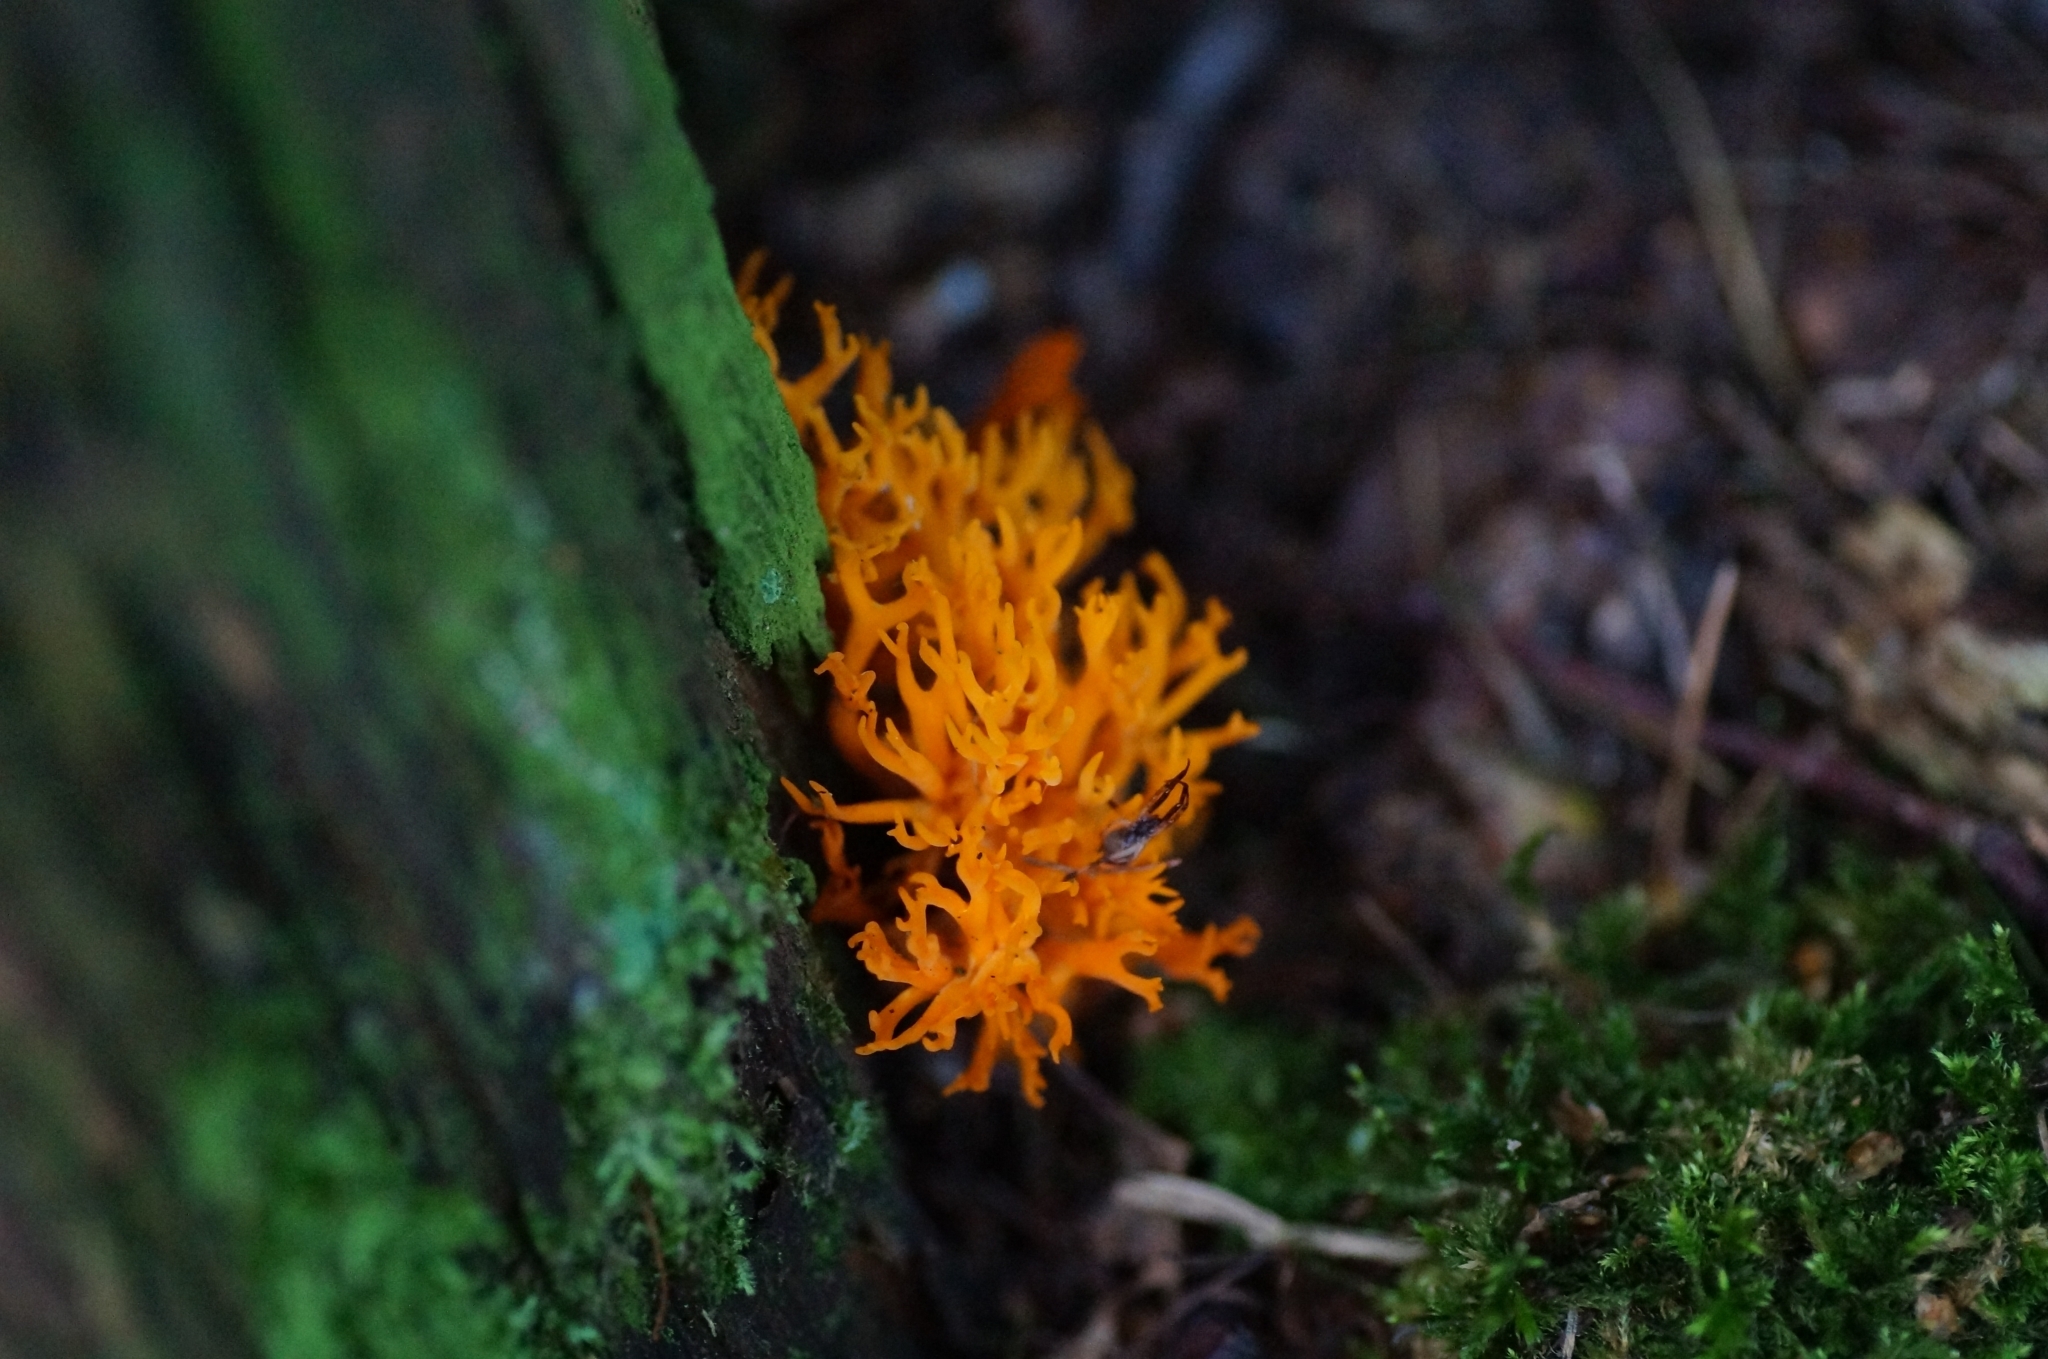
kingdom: Fungi
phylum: Basidiomycota
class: Dacrymycetes
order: Dacrymycetales
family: Dacrymycetaceae
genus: Calocera
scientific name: Calocera viscosa
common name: Yellow stagshorn
